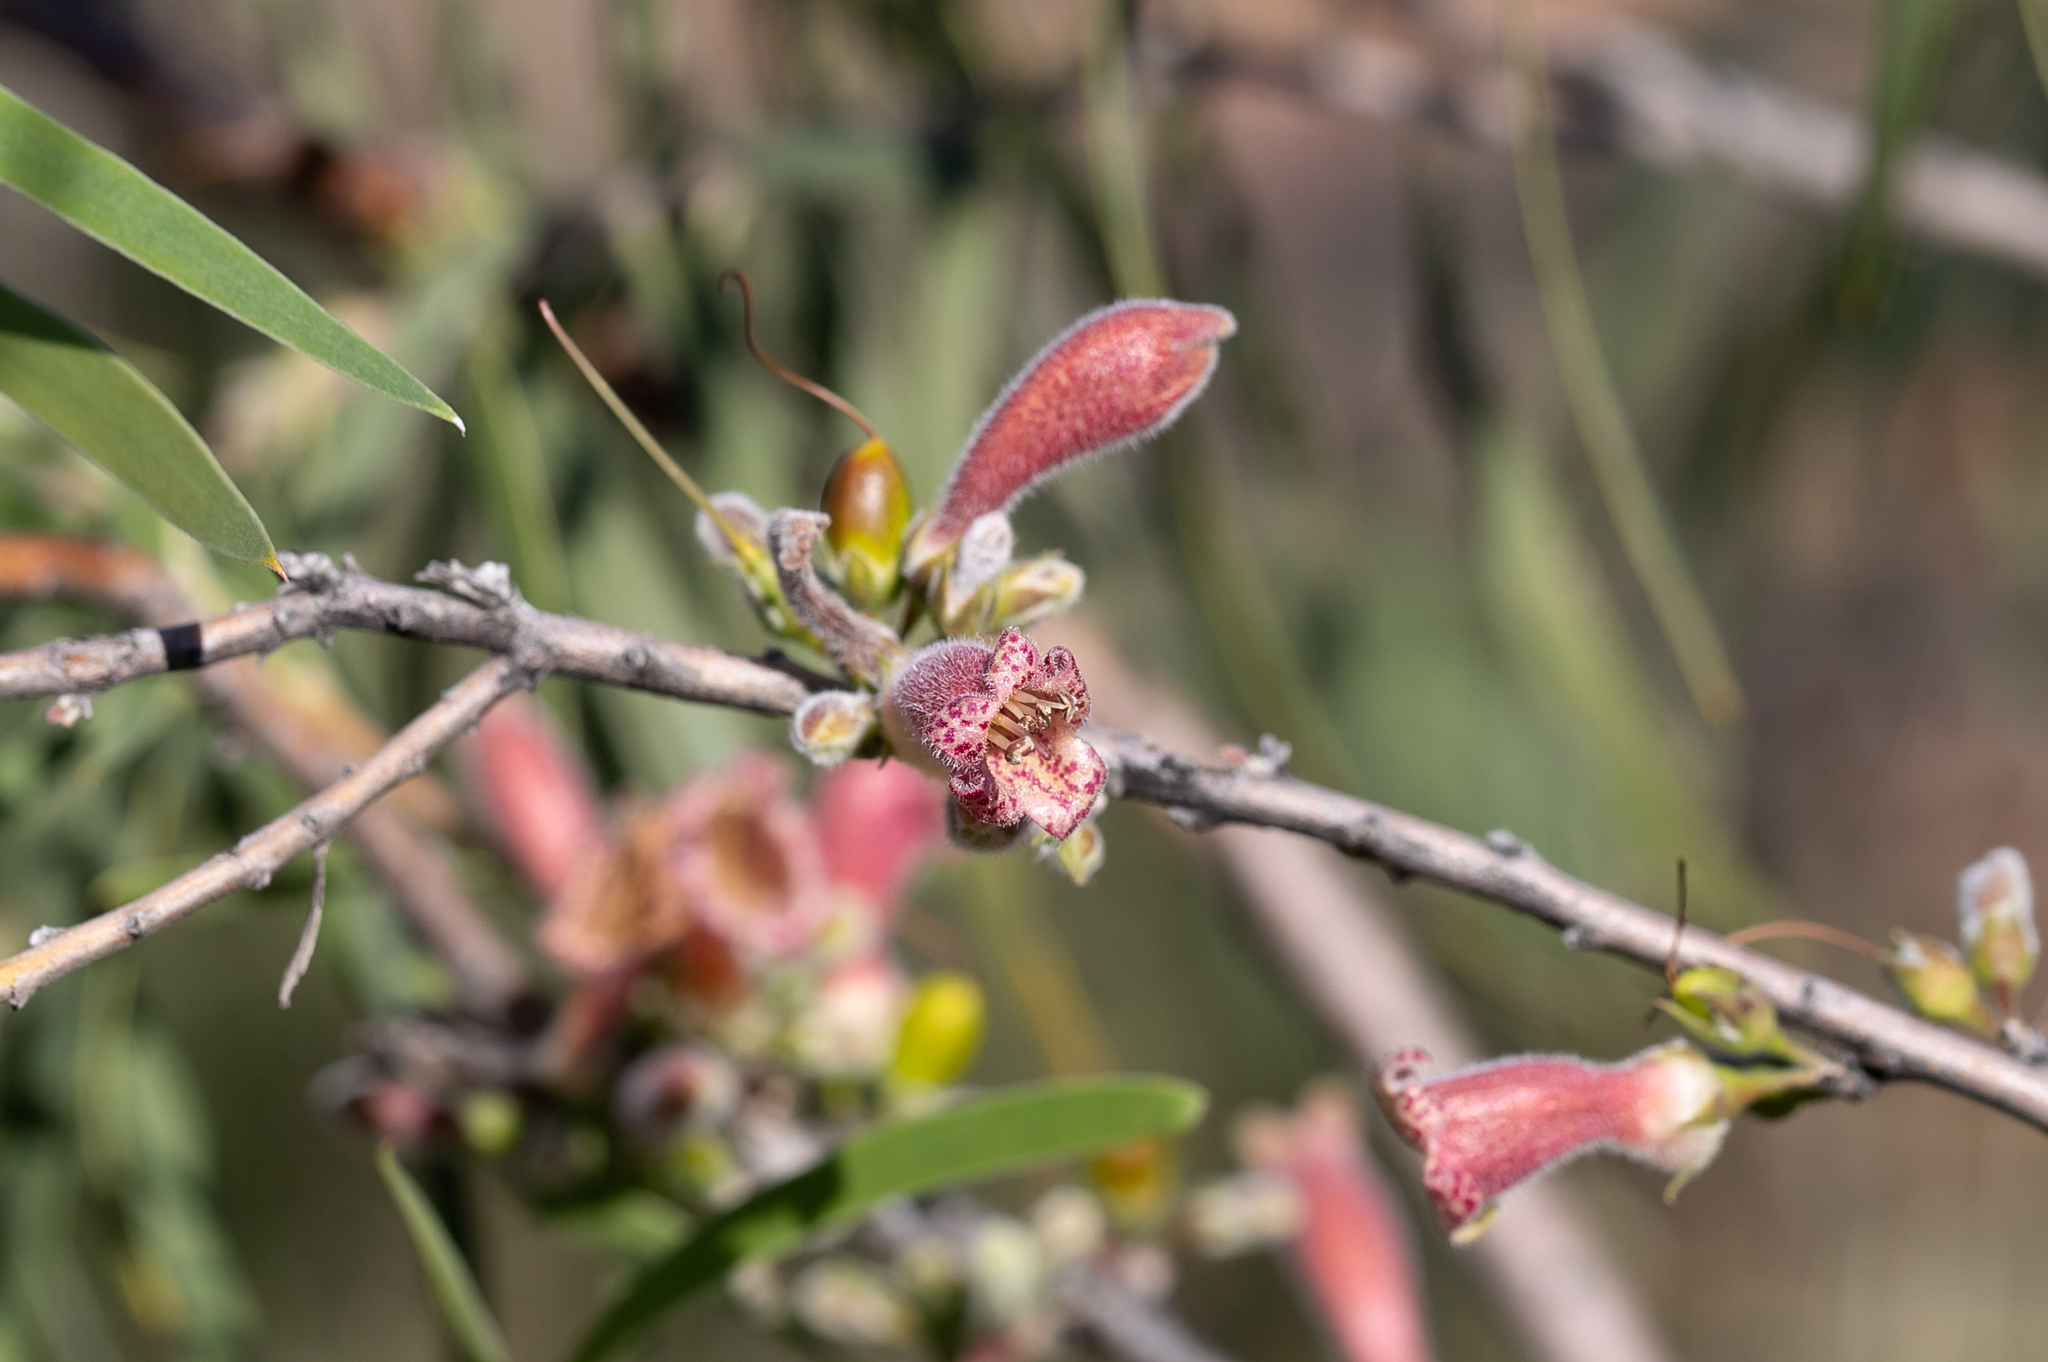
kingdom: Plantae
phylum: Tracheophyta
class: Magnoliopsida
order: Lamiales
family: Scrophulariaceae
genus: Eremophila
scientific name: Eremophila longifolia
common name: Longleaf emubush
